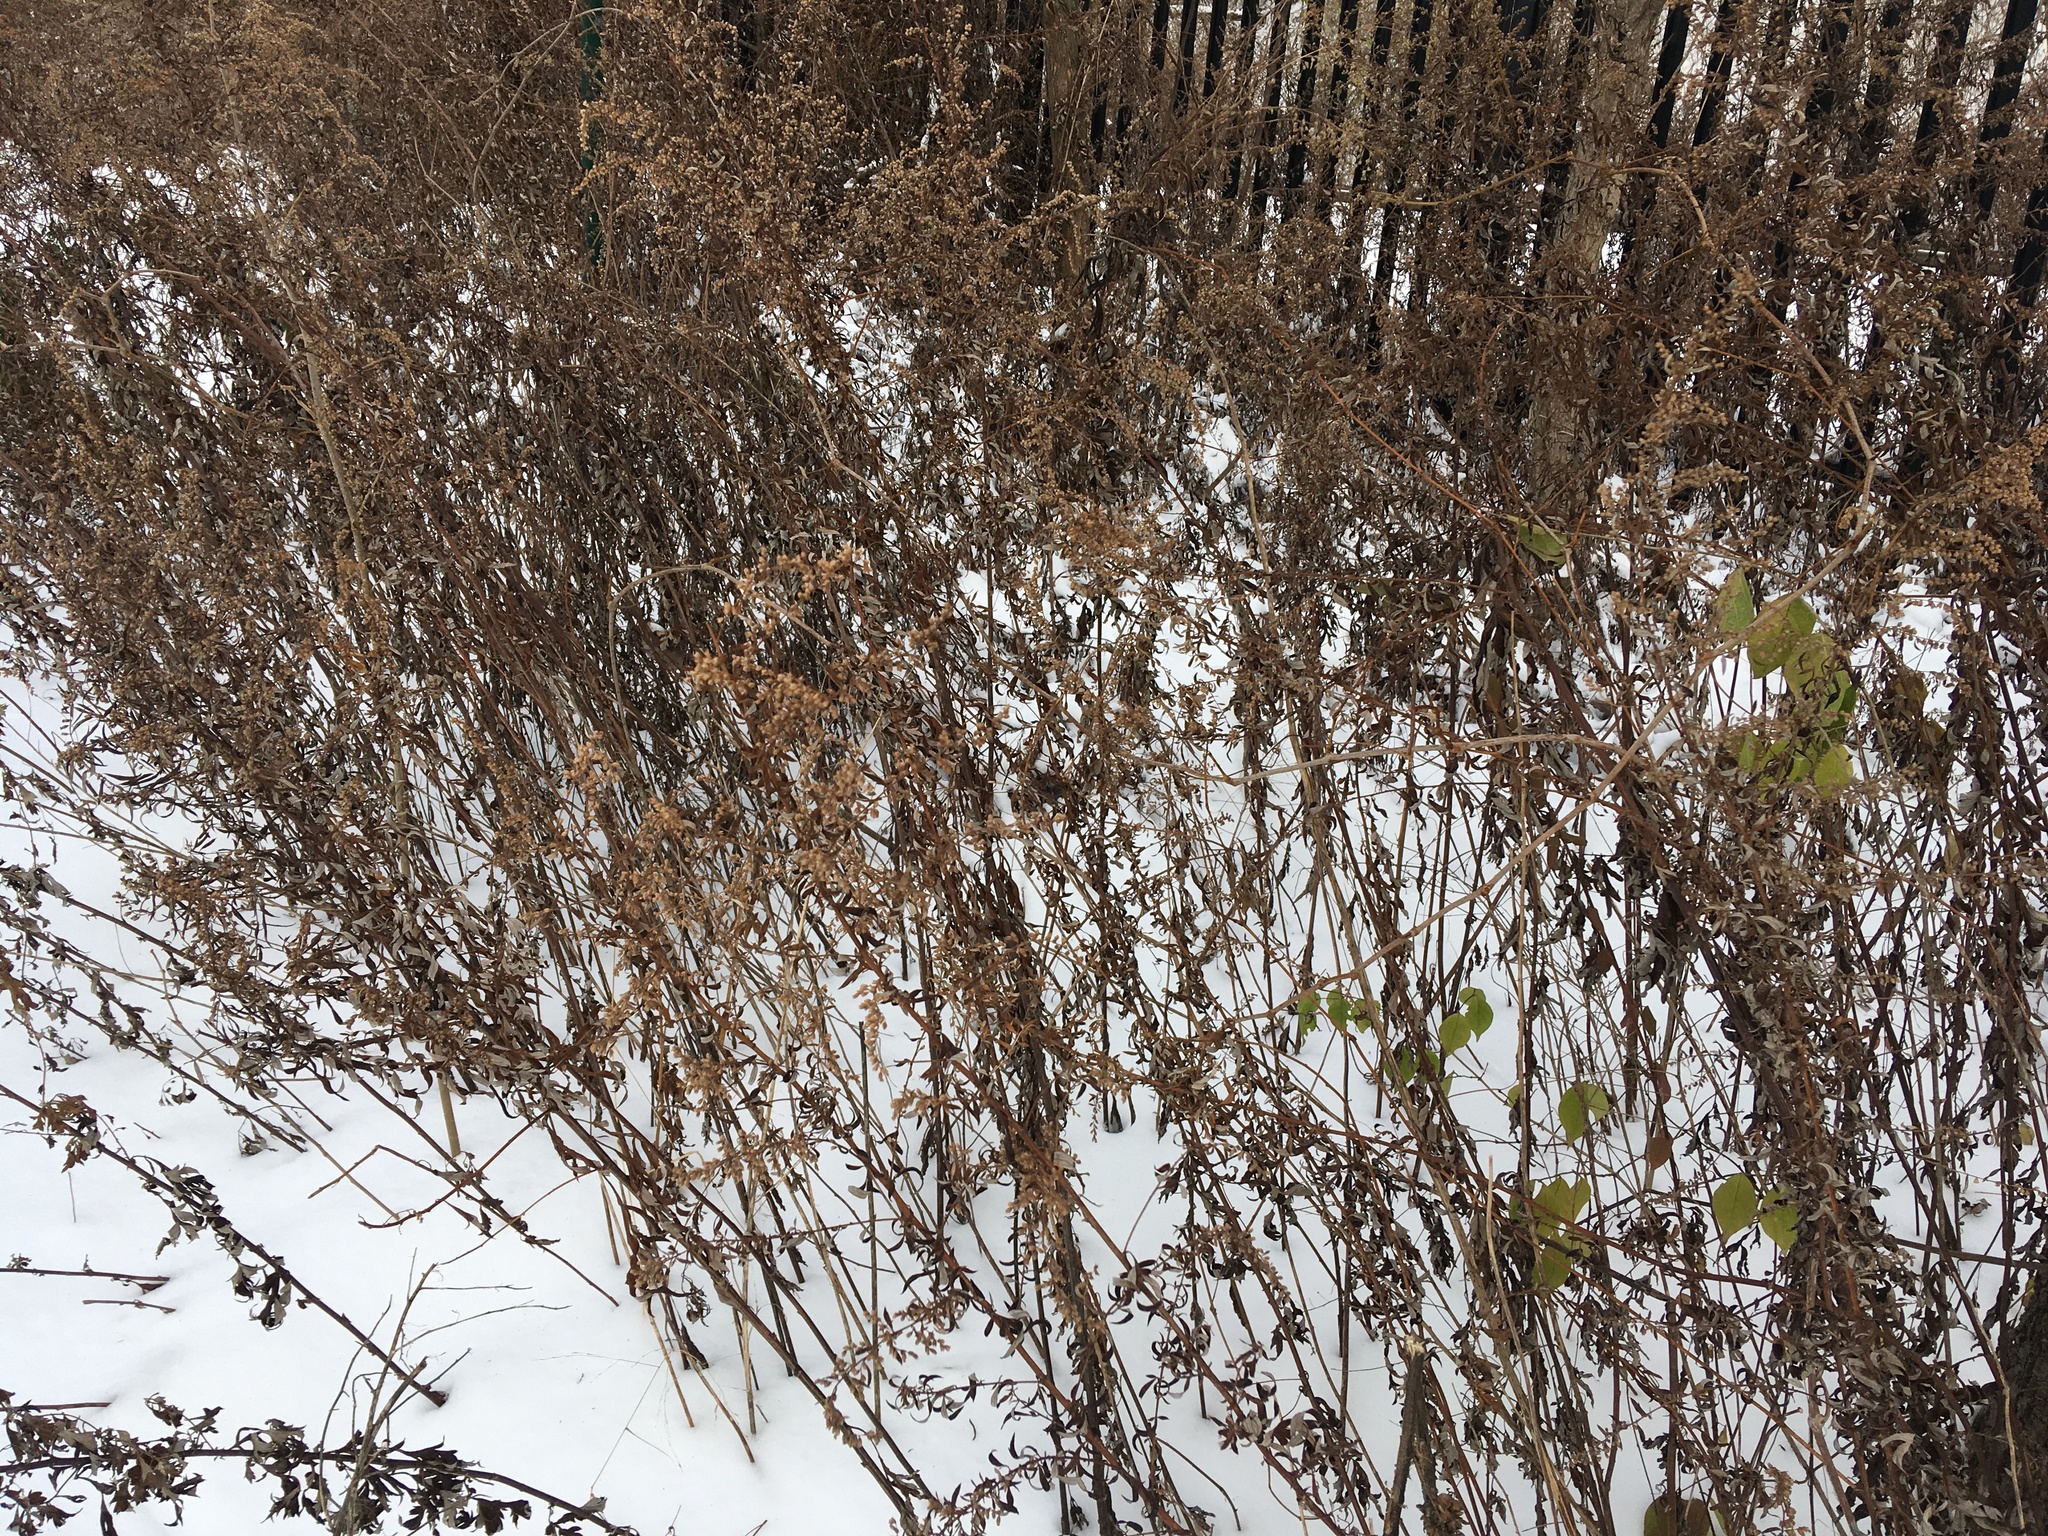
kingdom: Plantae
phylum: Tracheophyta
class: Magnoliopsida
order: Asterales
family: Asteraceae
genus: Artemisia
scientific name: Artemisia vulgaris
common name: Mugwort
